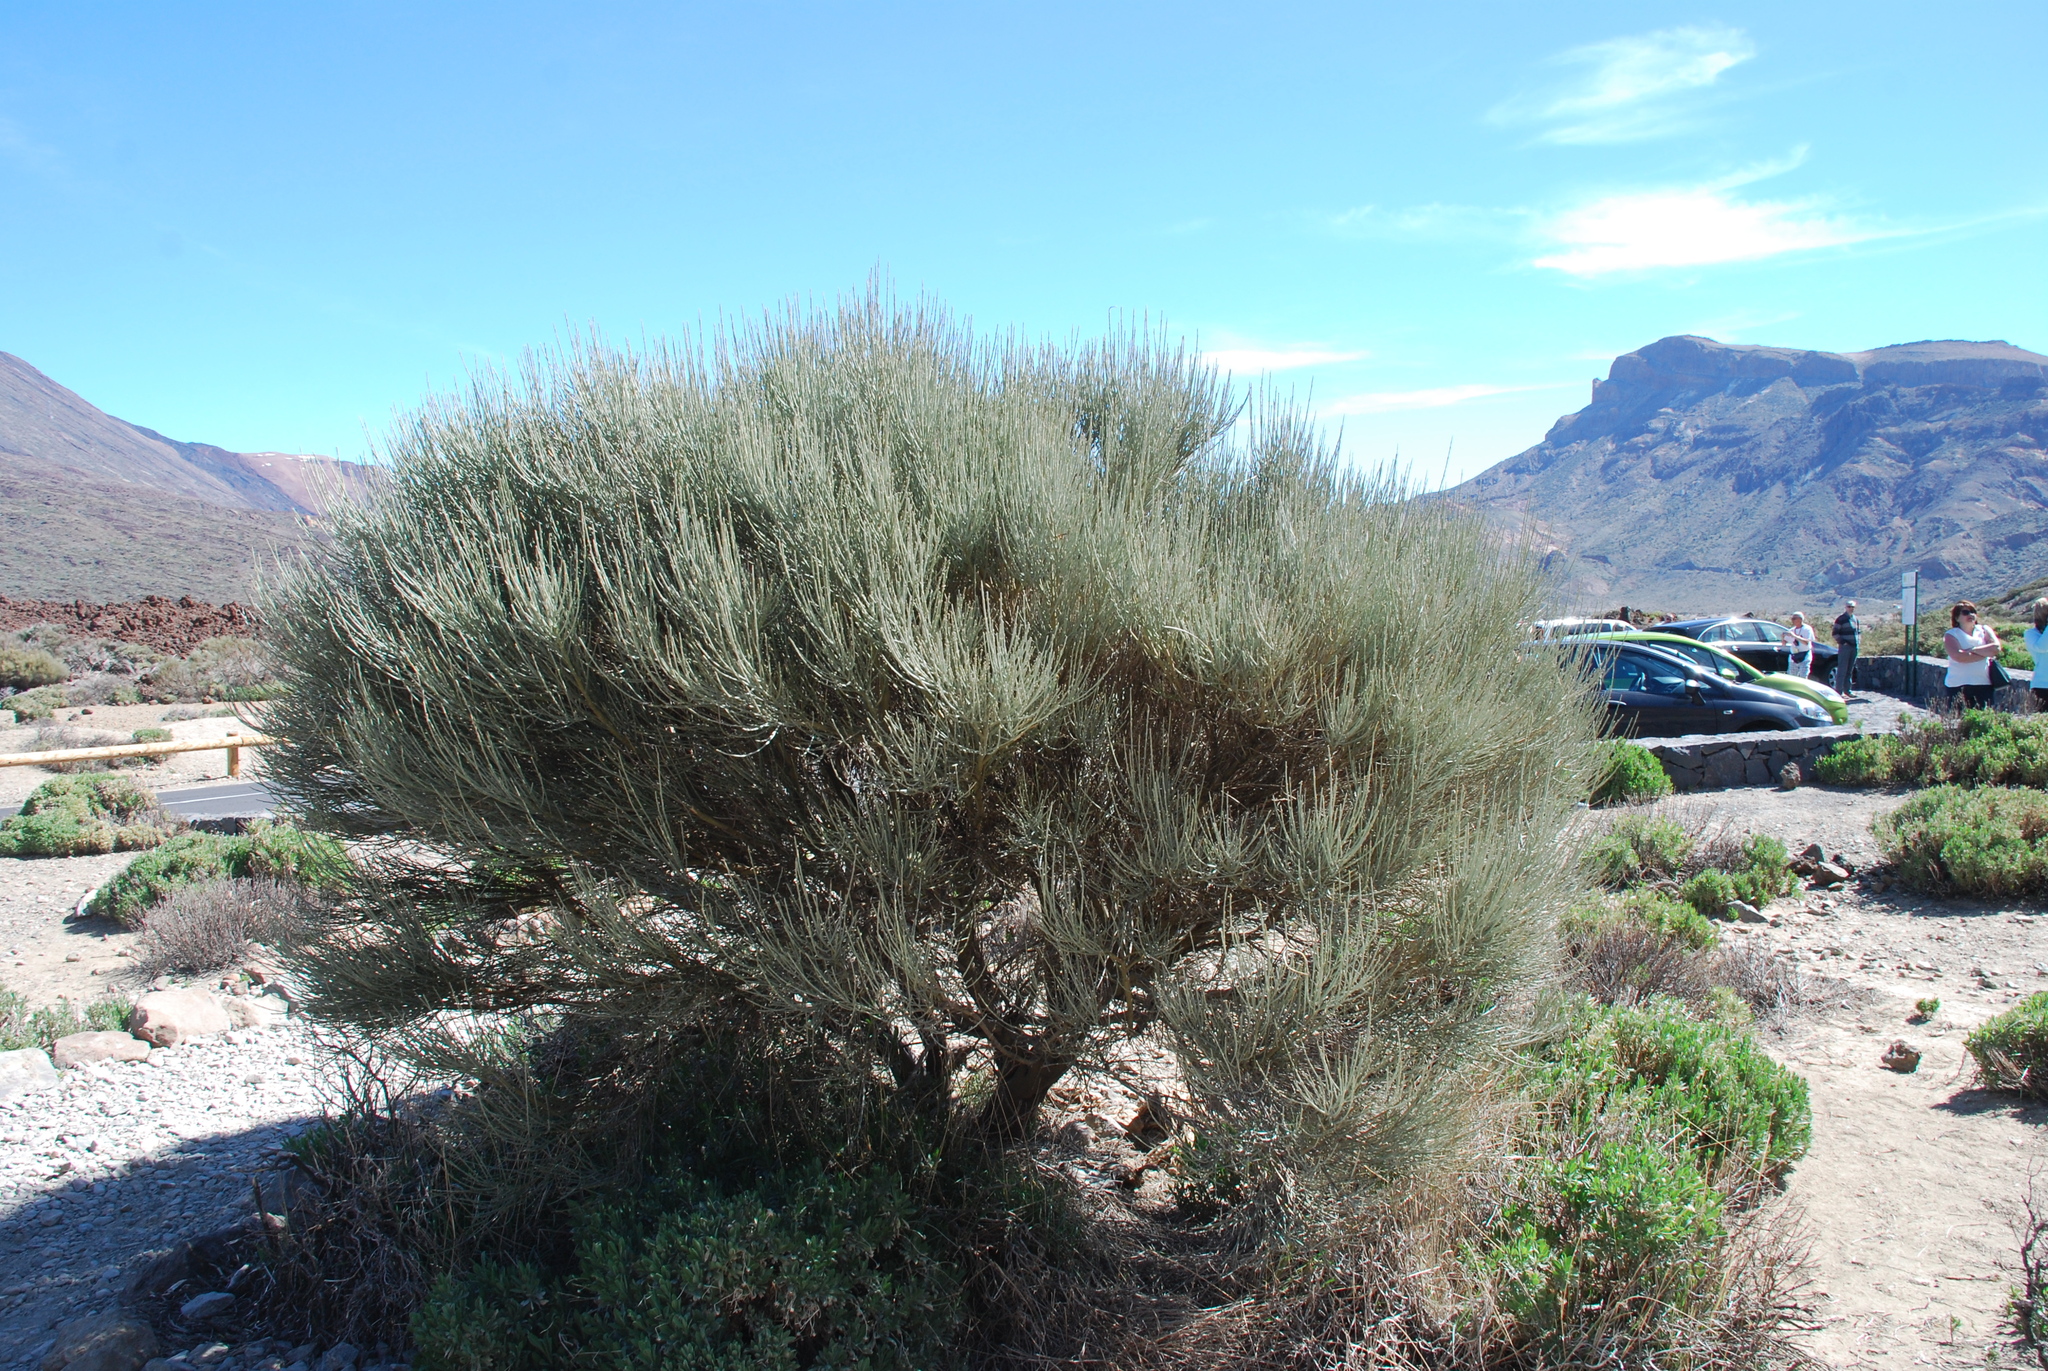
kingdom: Plantae
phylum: Tracheophyta
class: Magnoliopsida
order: Fabales
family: Fabaceae
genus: Cytisus
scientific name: Cytisus supranubius
